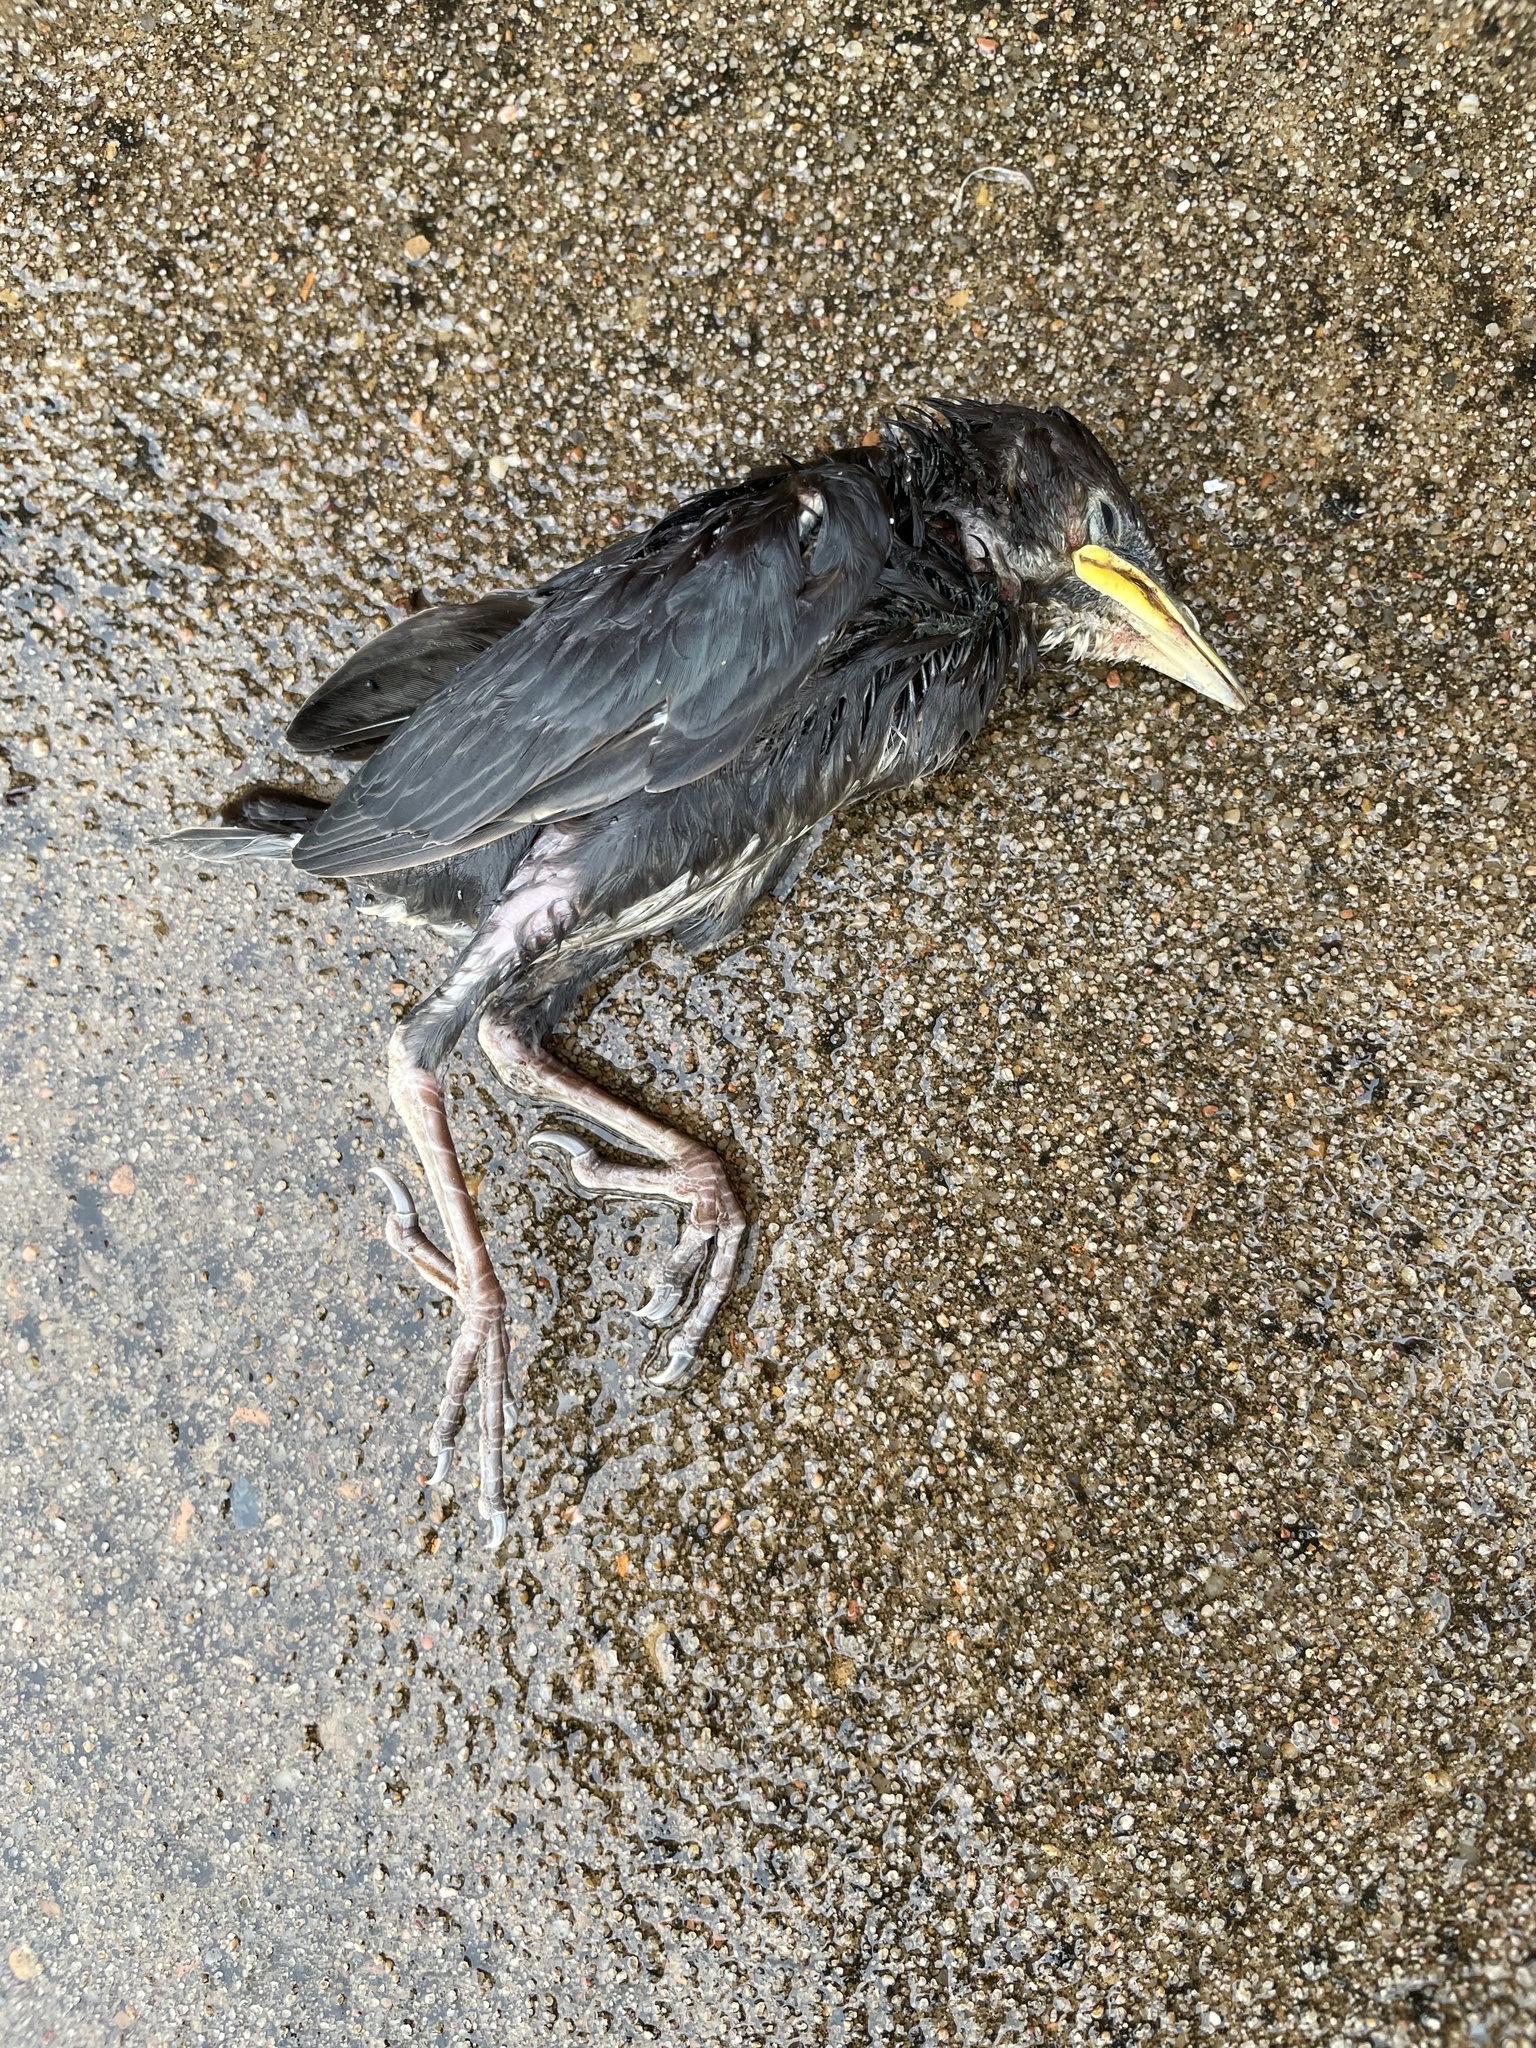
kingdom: Animalia
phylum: Chordata
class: Aves
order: Passeriformes
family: Sturnidae
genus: Sturnus
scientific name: Sturnus vulgaris
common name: Common starling
